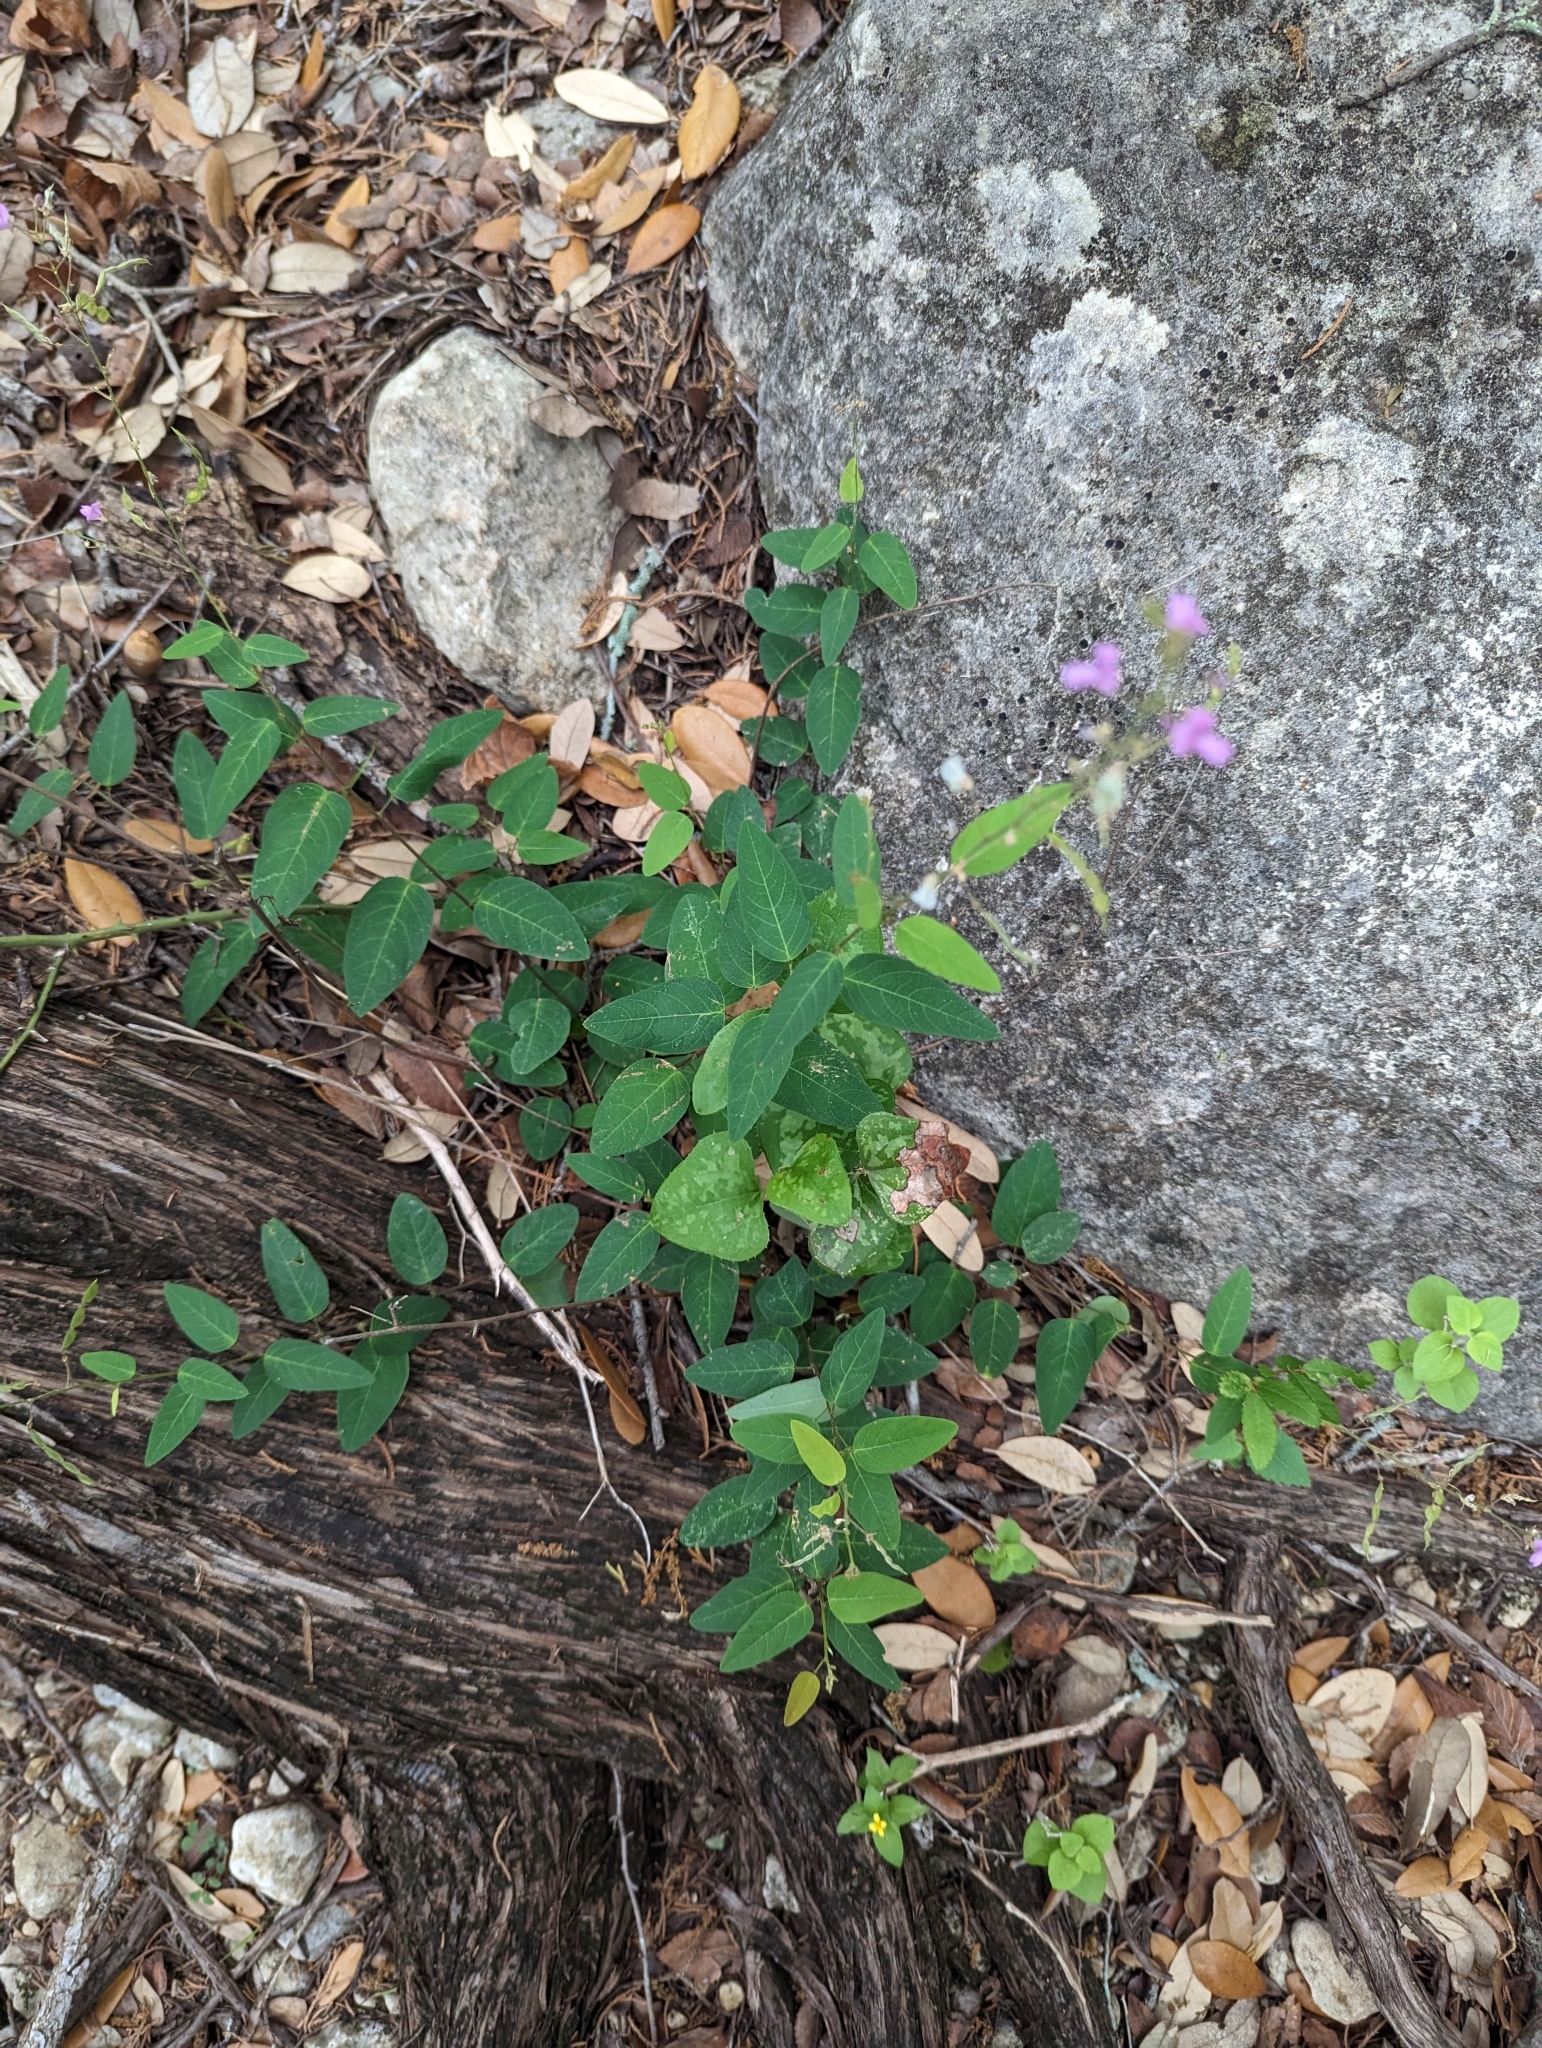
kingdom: Plantae
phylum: Tracheophyta
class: Magnoliopsida
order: Fabales
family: Fabaceae
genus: Desmodium
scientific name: Desmodium psilophyllum
